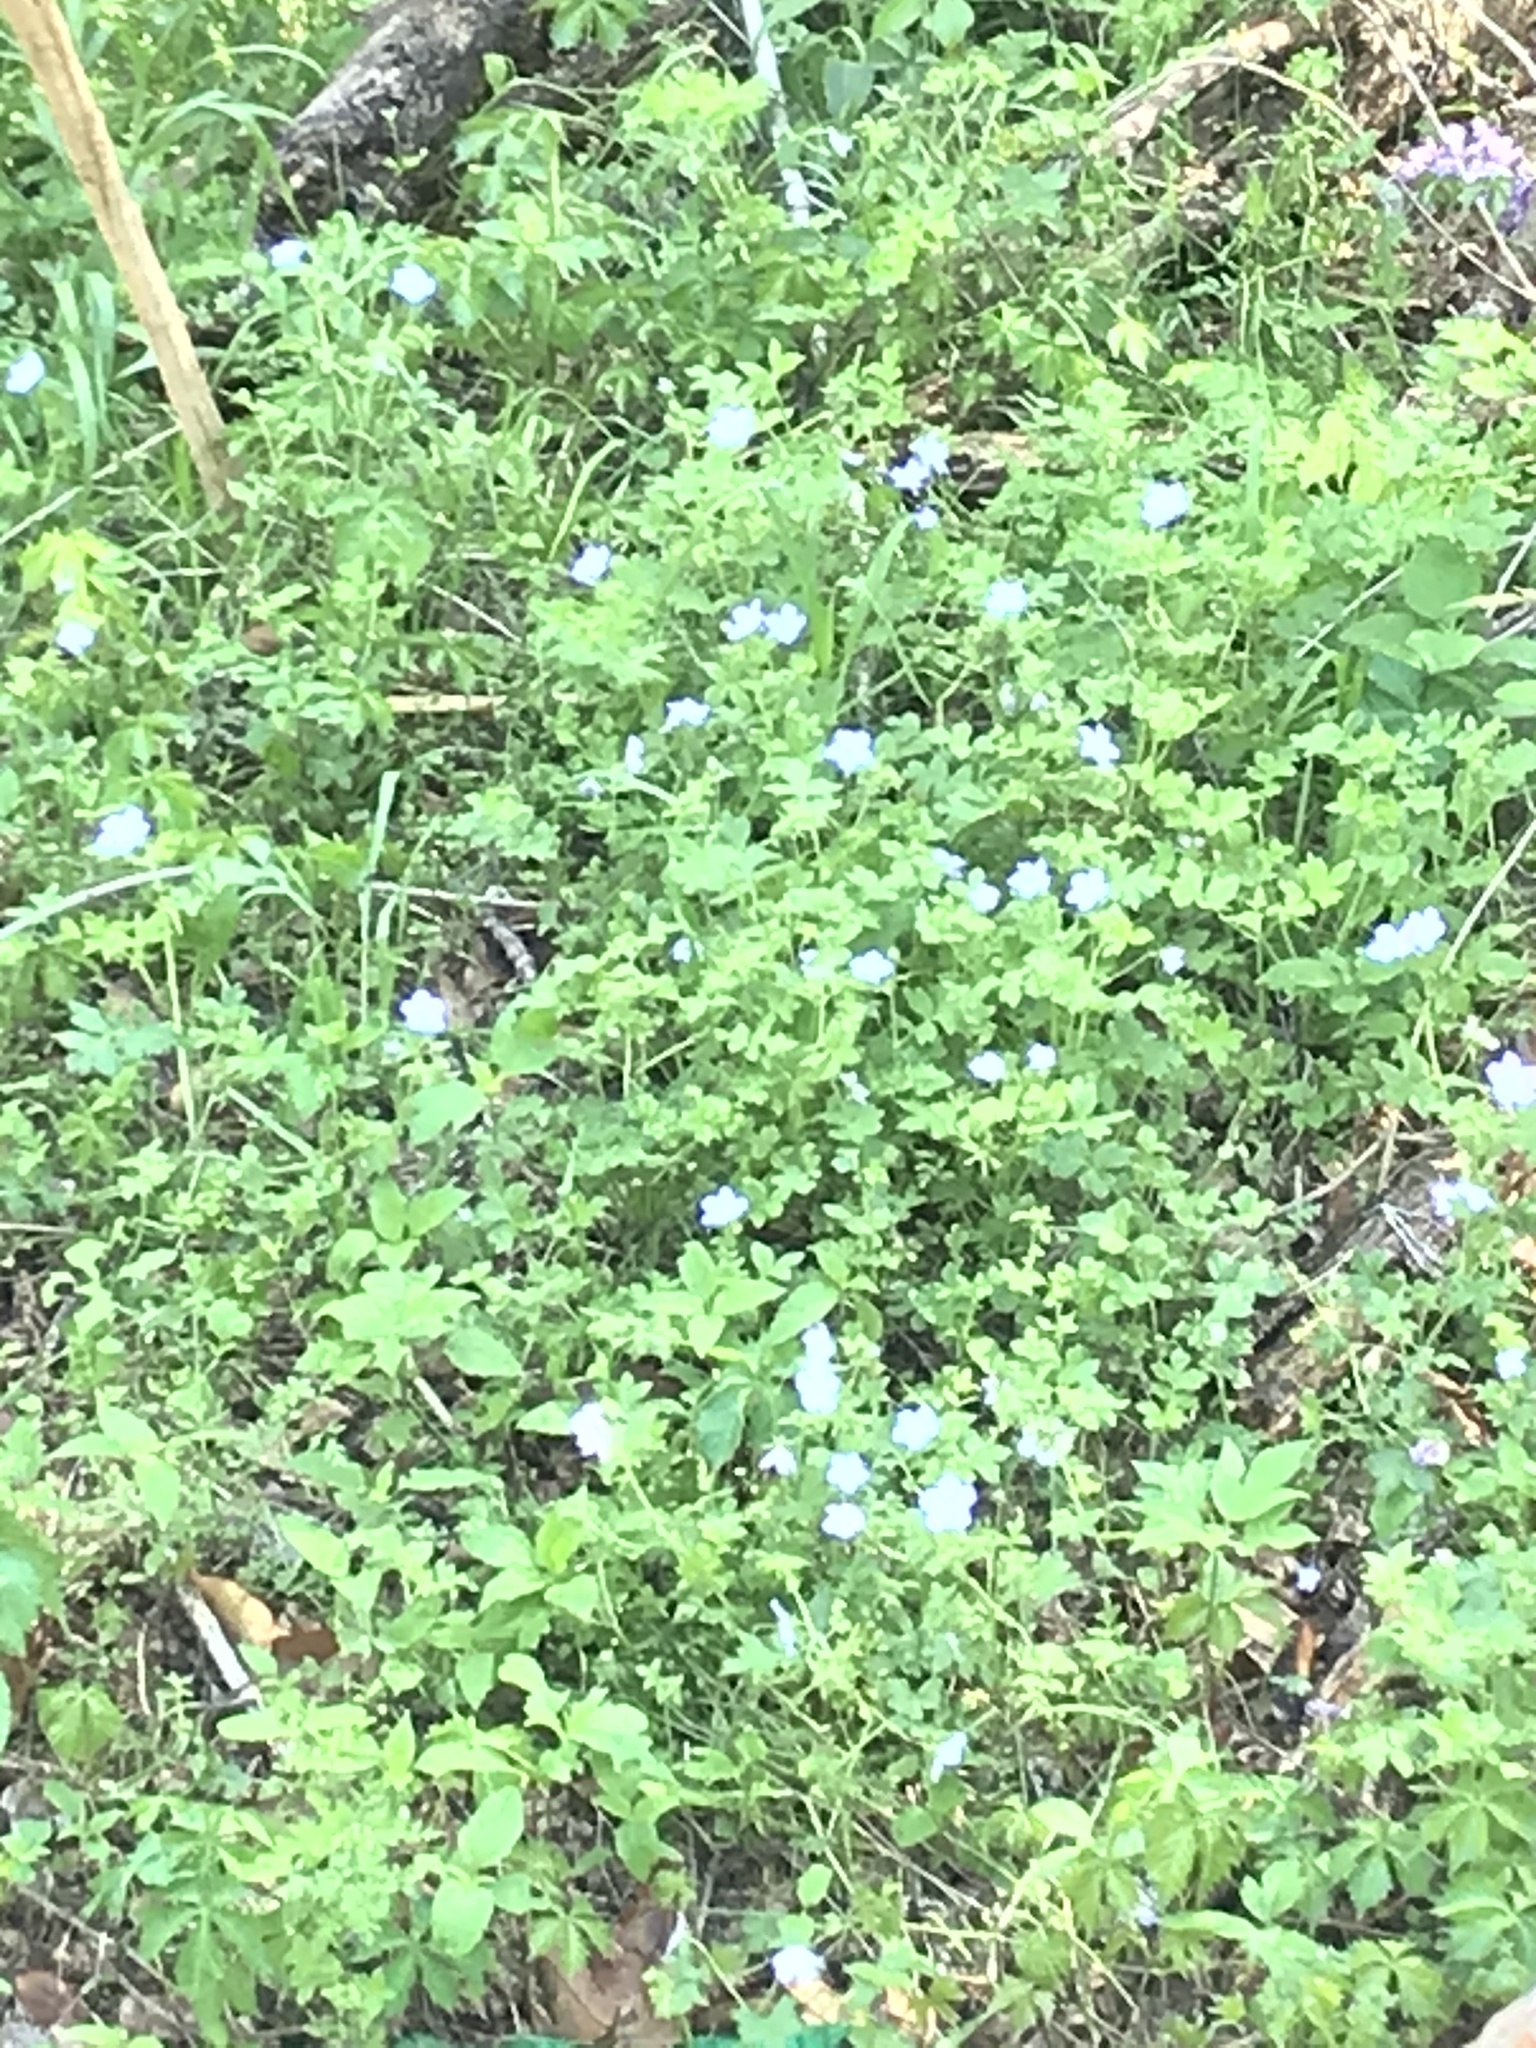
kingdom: Plantae
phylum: Tracheophyta
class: Magnoliopsida
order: Boraginales
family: Hydrophyllaceae
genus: Nemophila
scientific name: Nemophila phacelioides
